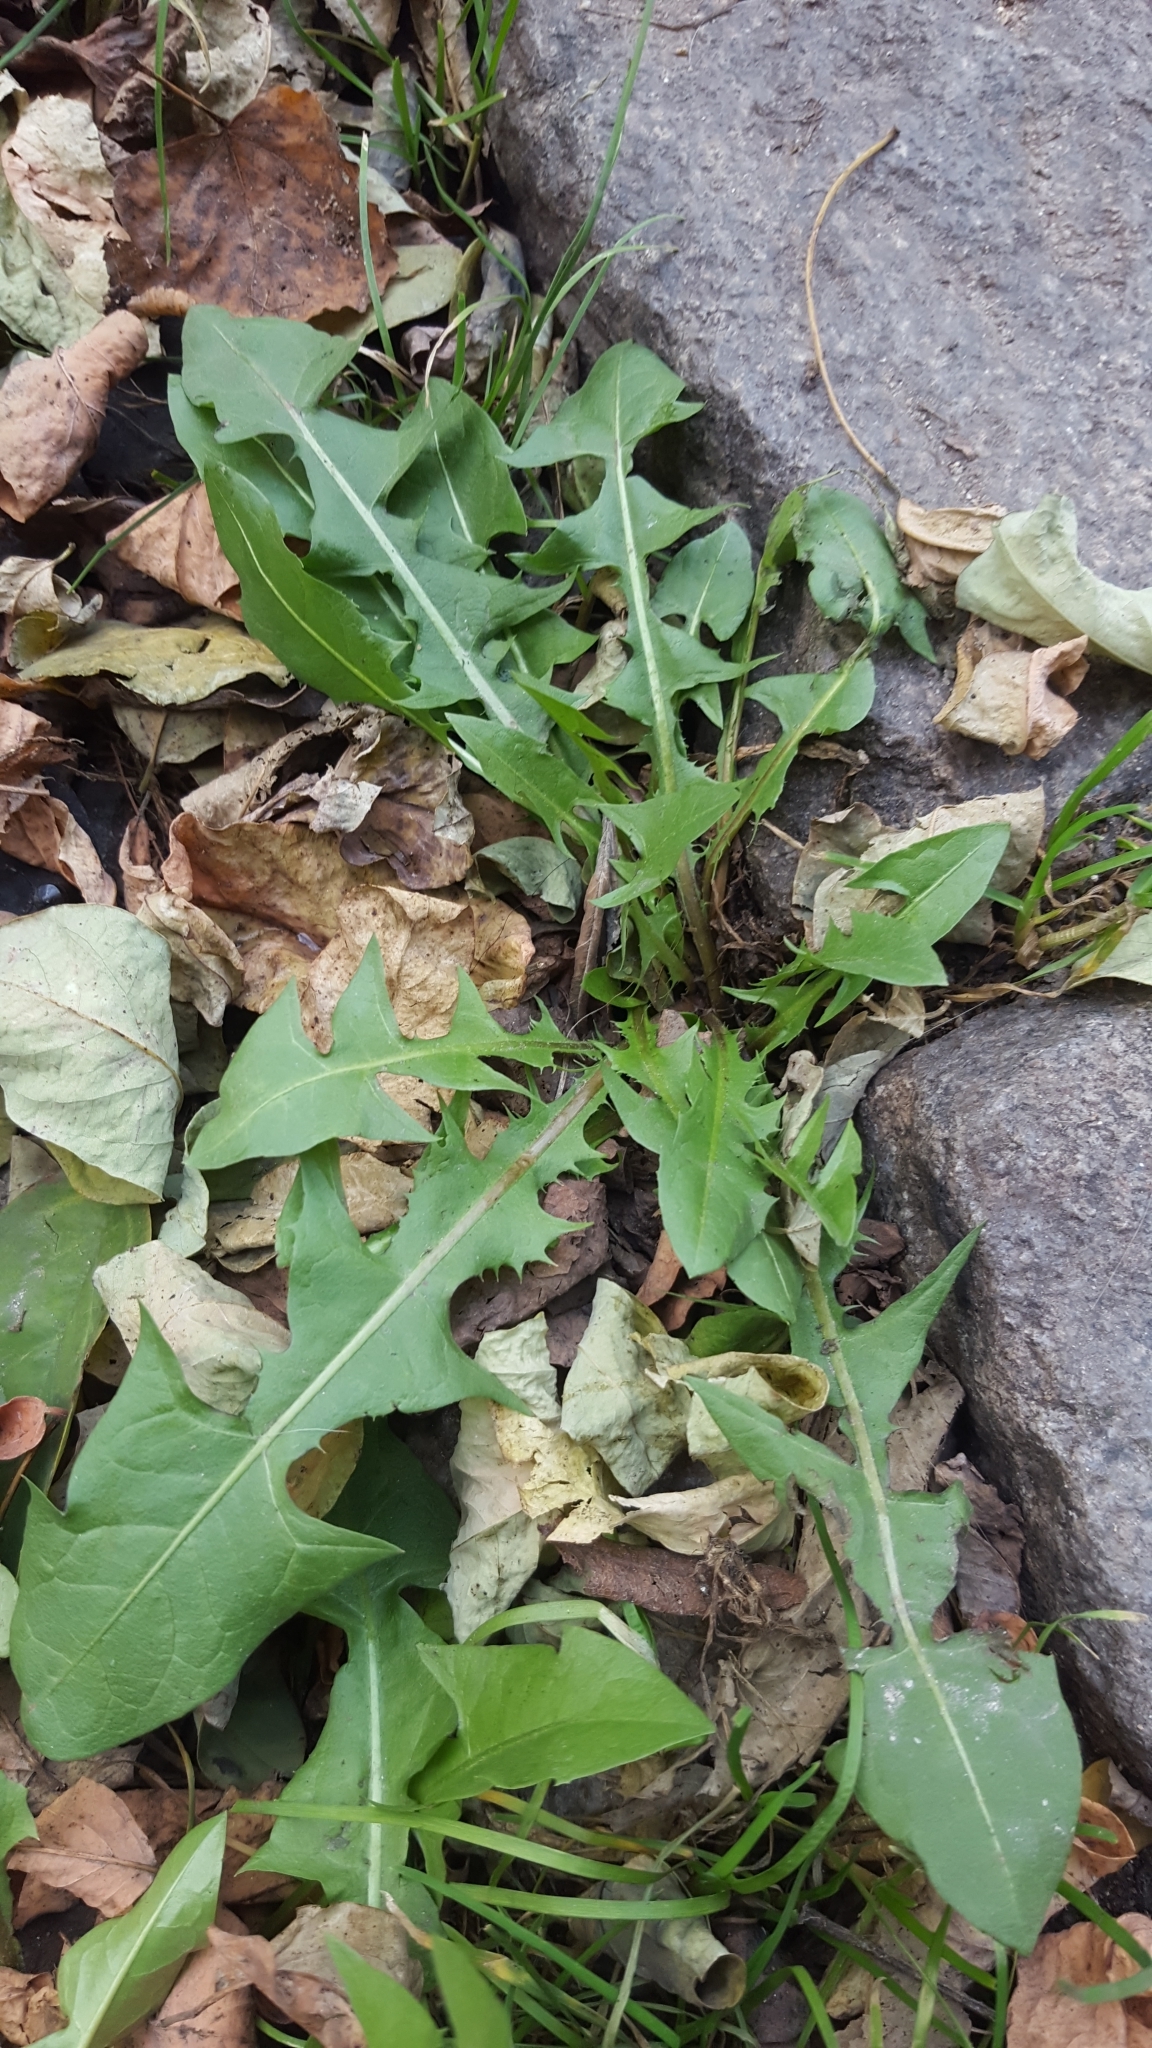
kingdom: Plantae
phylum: Tracheophyta
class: Magnoliopsida
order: Asterales
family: Asteraceae
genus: Taraxacum
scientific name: Taraxacum officinale
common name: Common dandelion
